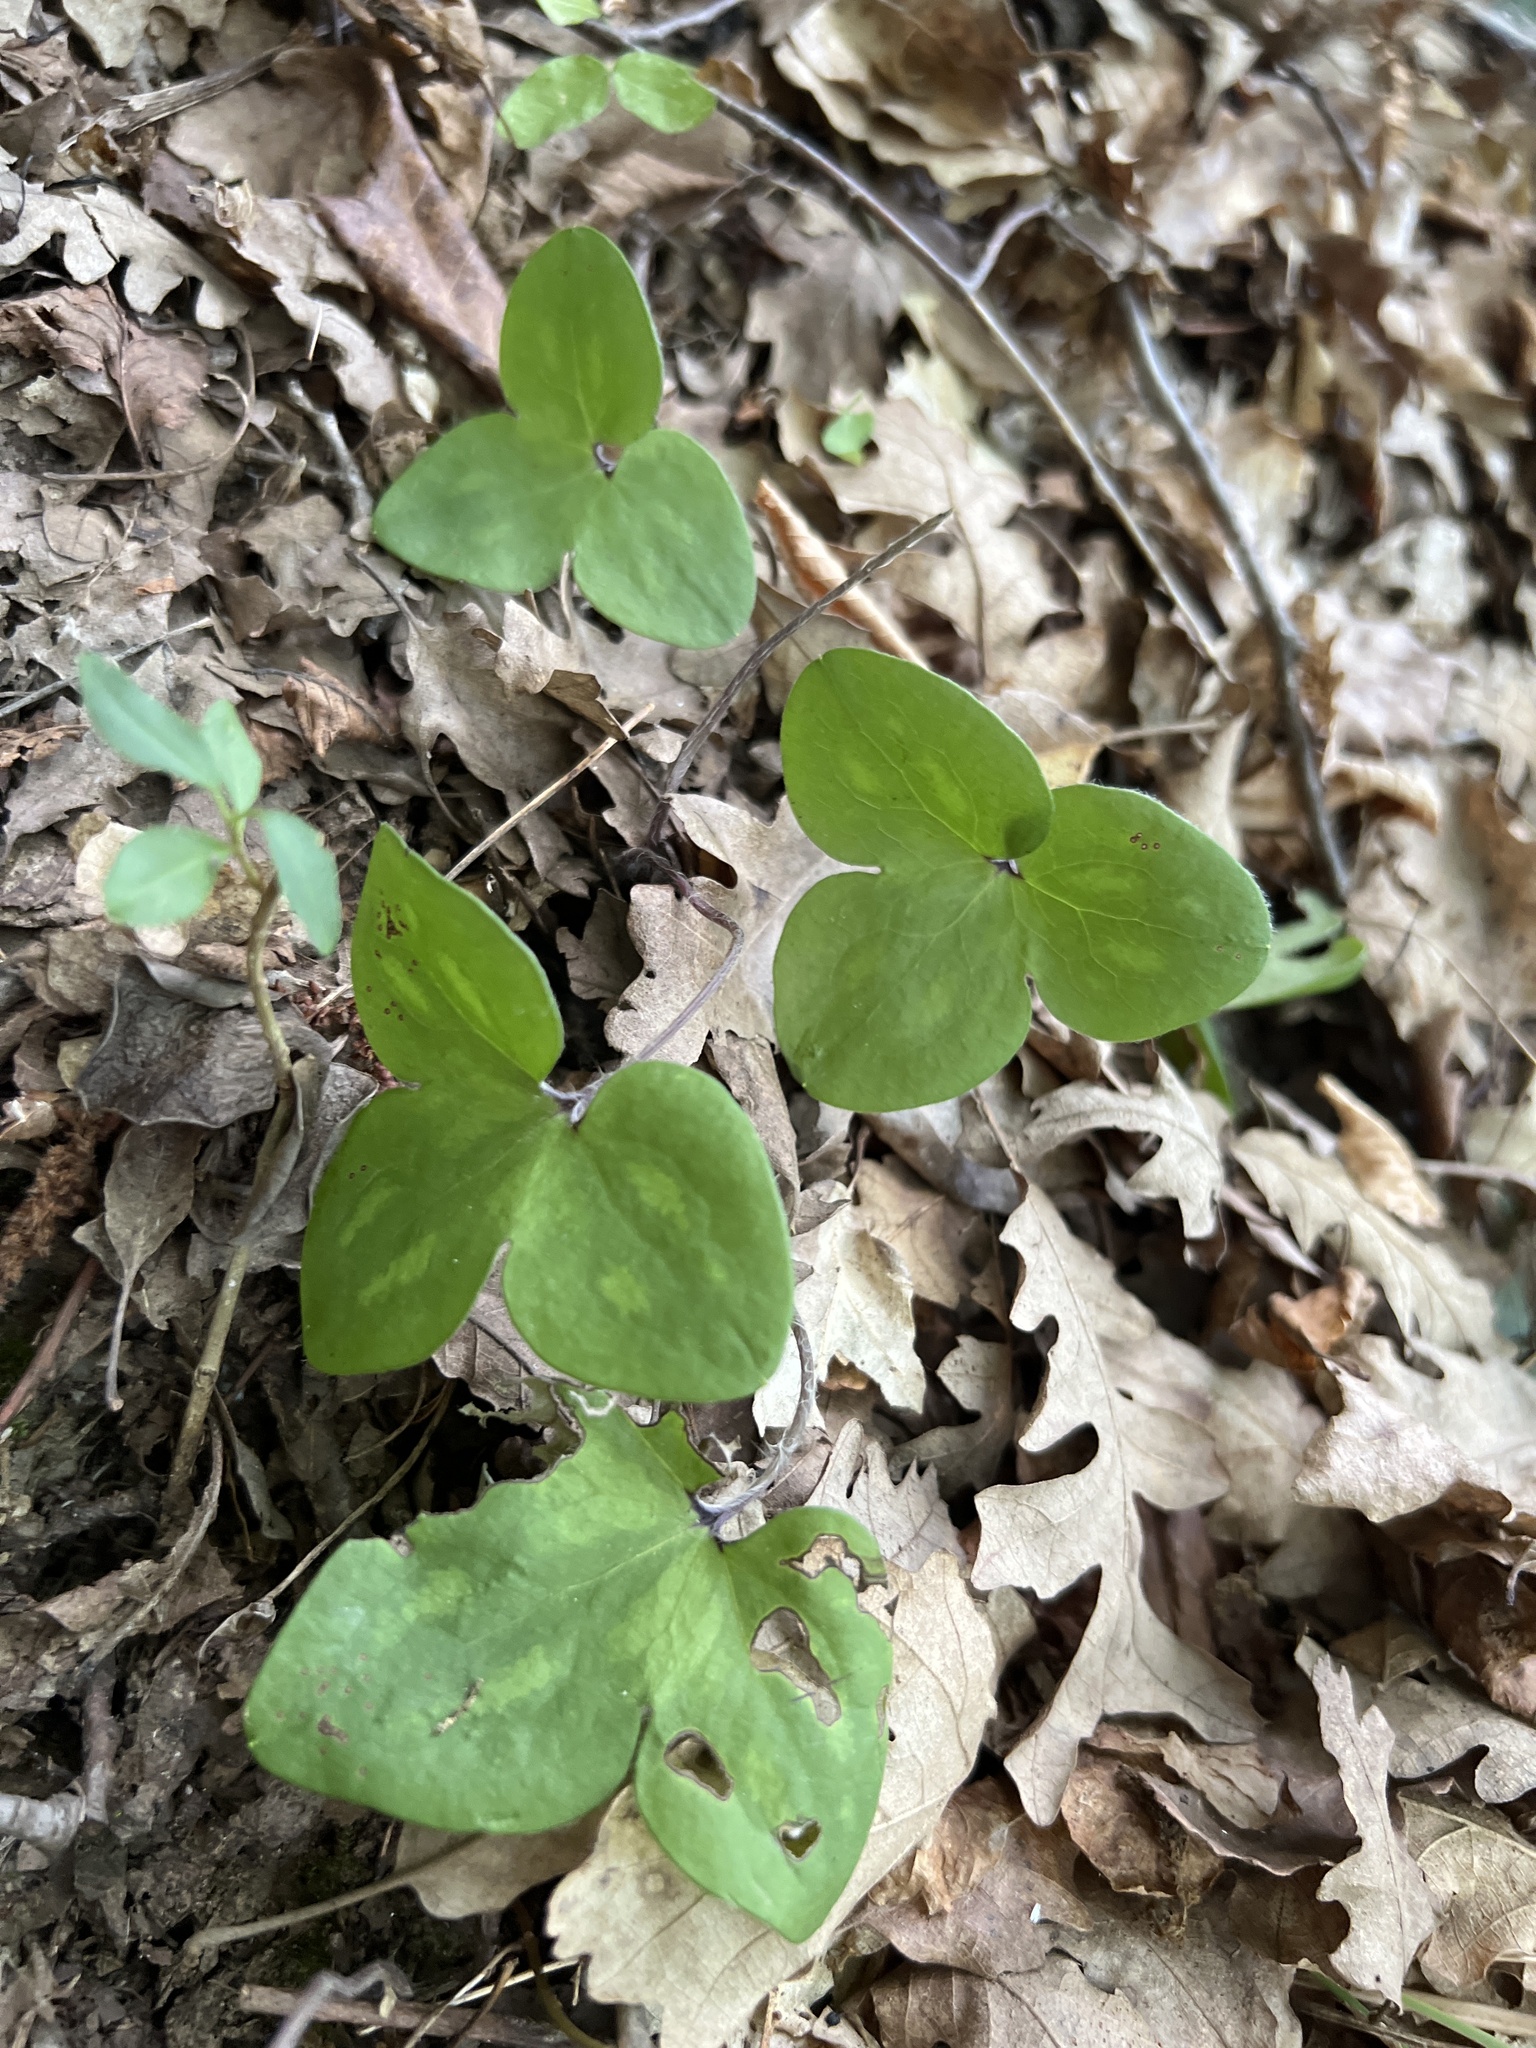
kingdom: Plantae
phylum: Tracheophyta
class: Magnoliopsida
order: Ranunculales
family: Ranunculaceae
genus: Hepatica
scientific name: Hepatica nobilis
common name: Liverleaf
